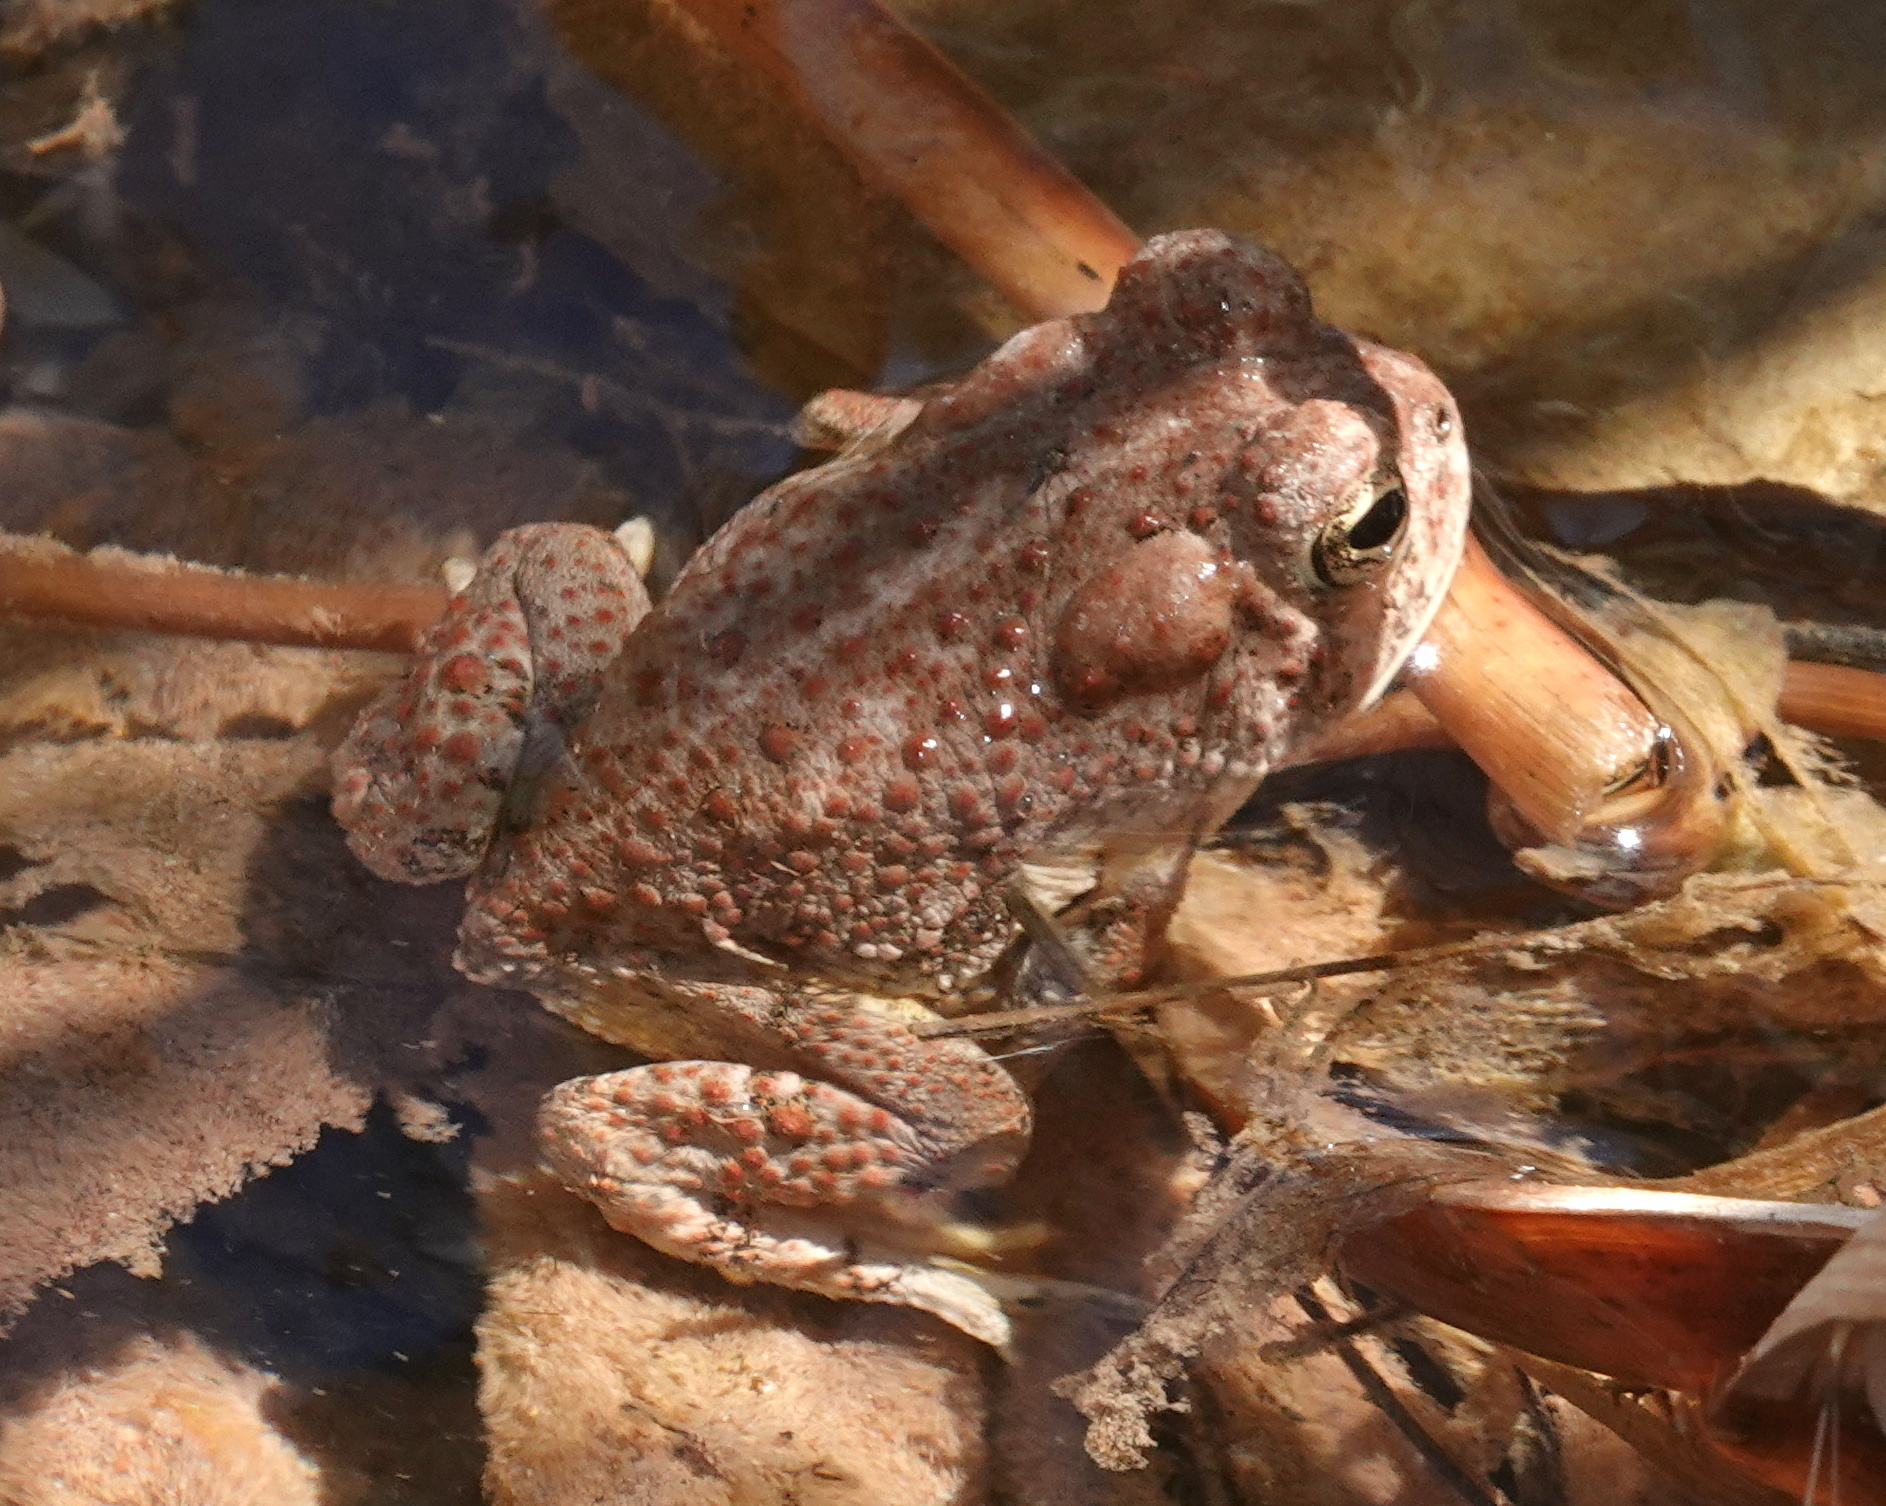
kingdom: Animalia
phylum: Chordata
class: Amphibia
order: Anura
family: Bufonidae
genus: Anaxyrus
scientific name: Anaxyrus microscaphus
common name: Arizona toad
